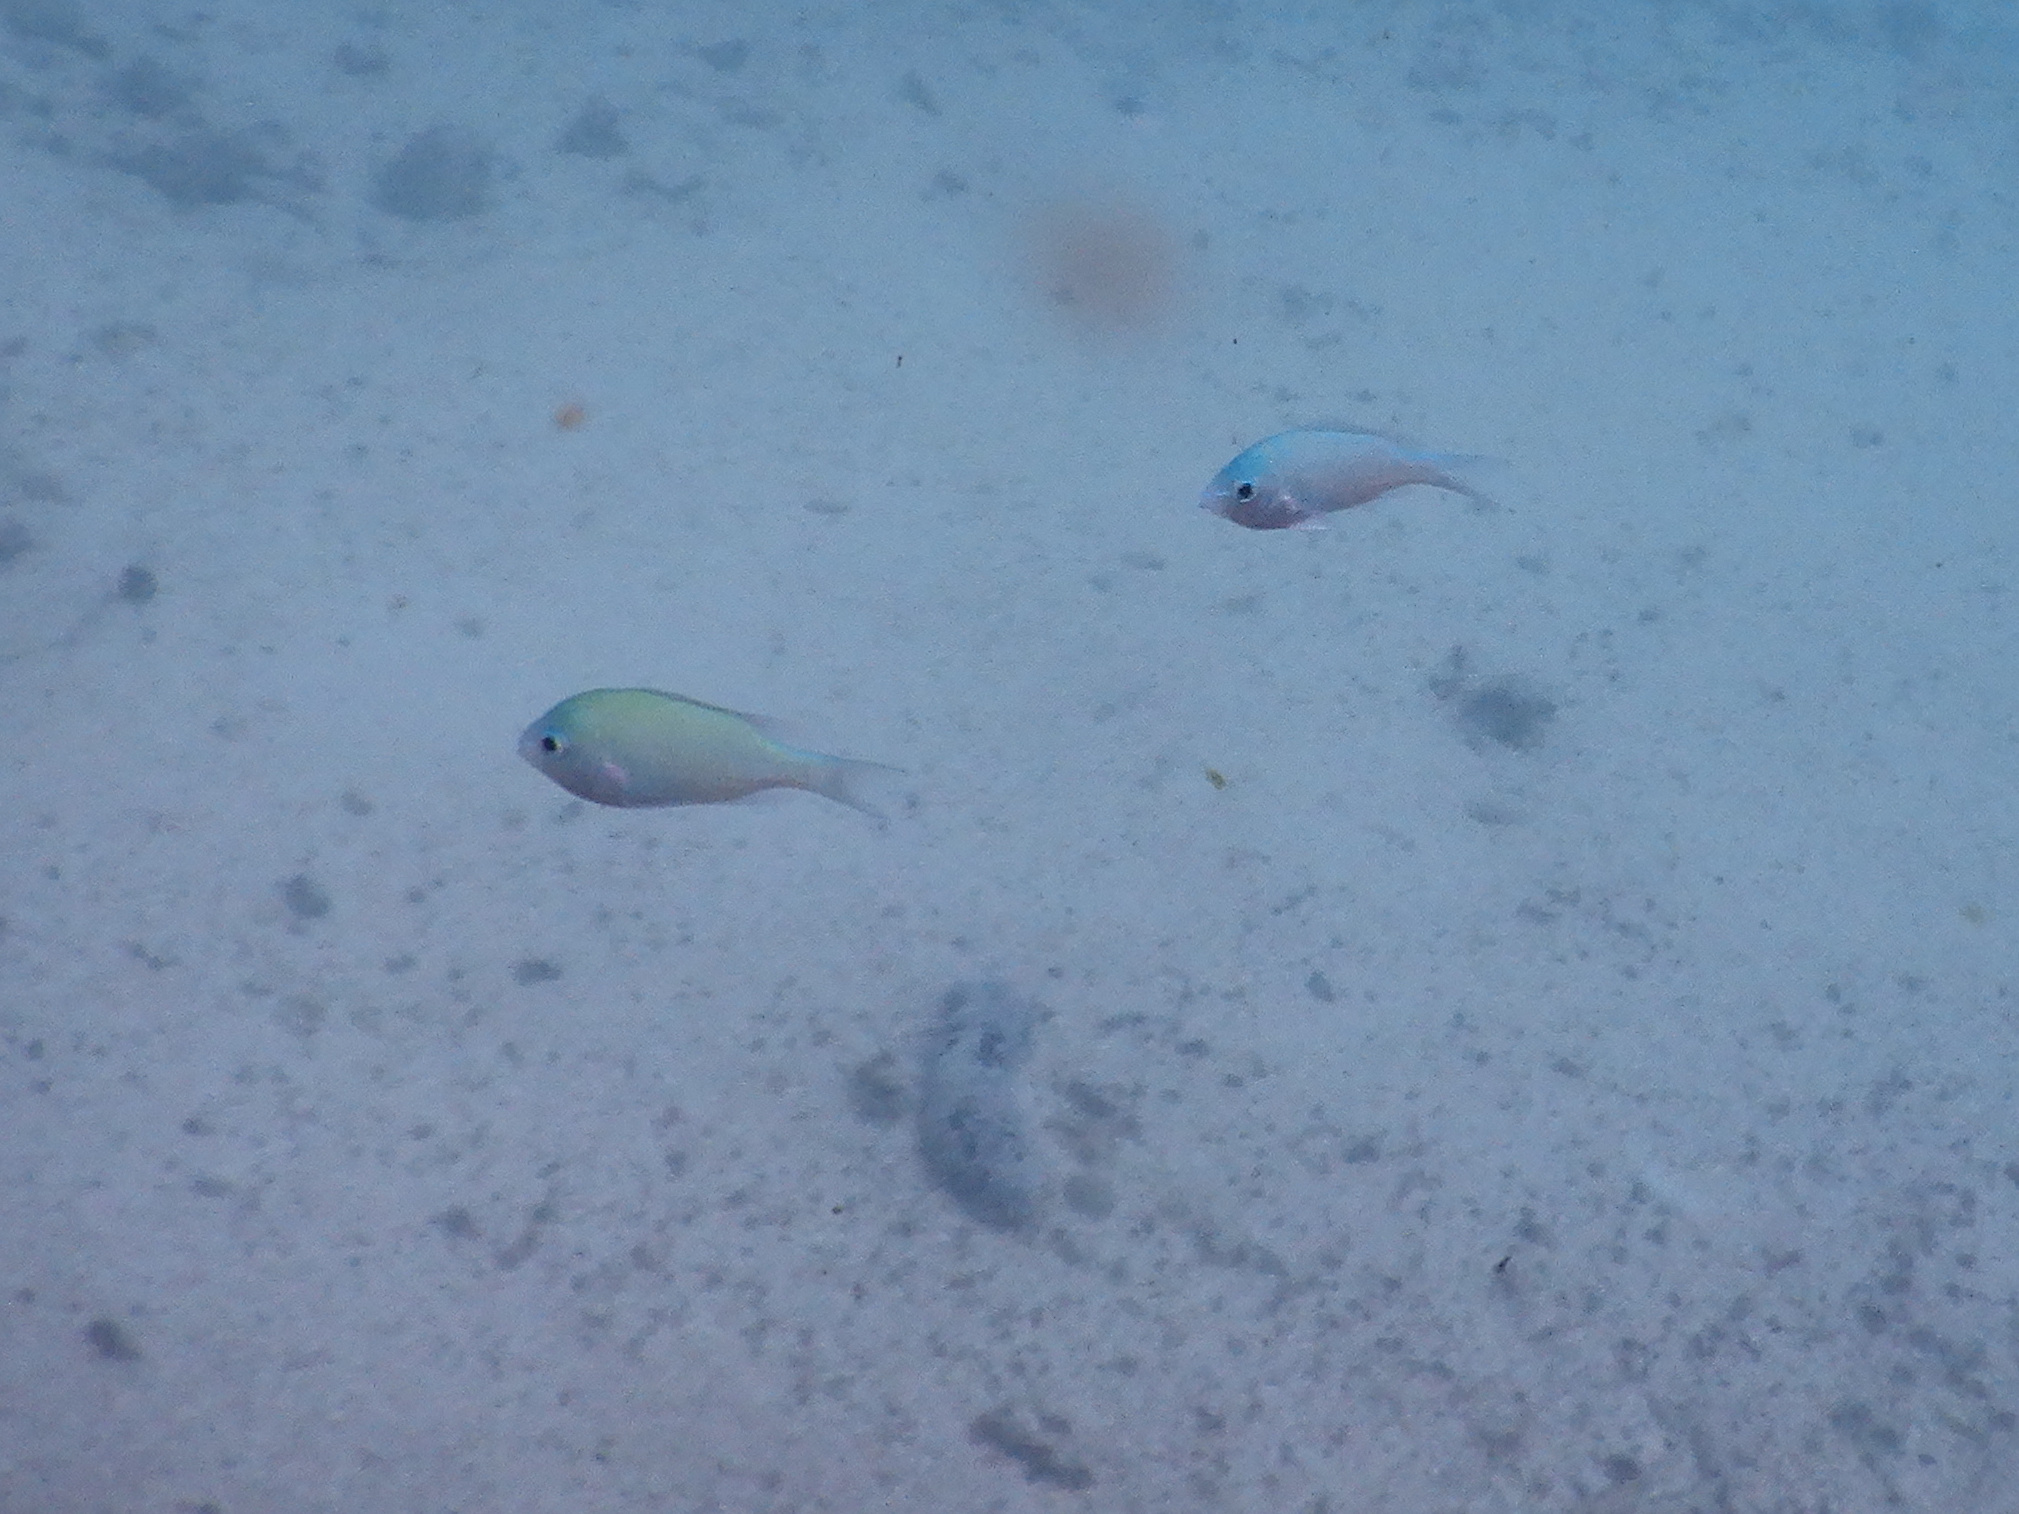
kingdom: Animalia
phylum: Chordata
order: Perciformes
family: Pomacentridae
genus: Chromis
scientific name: Chromis viridis
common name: Blue-green chromis
